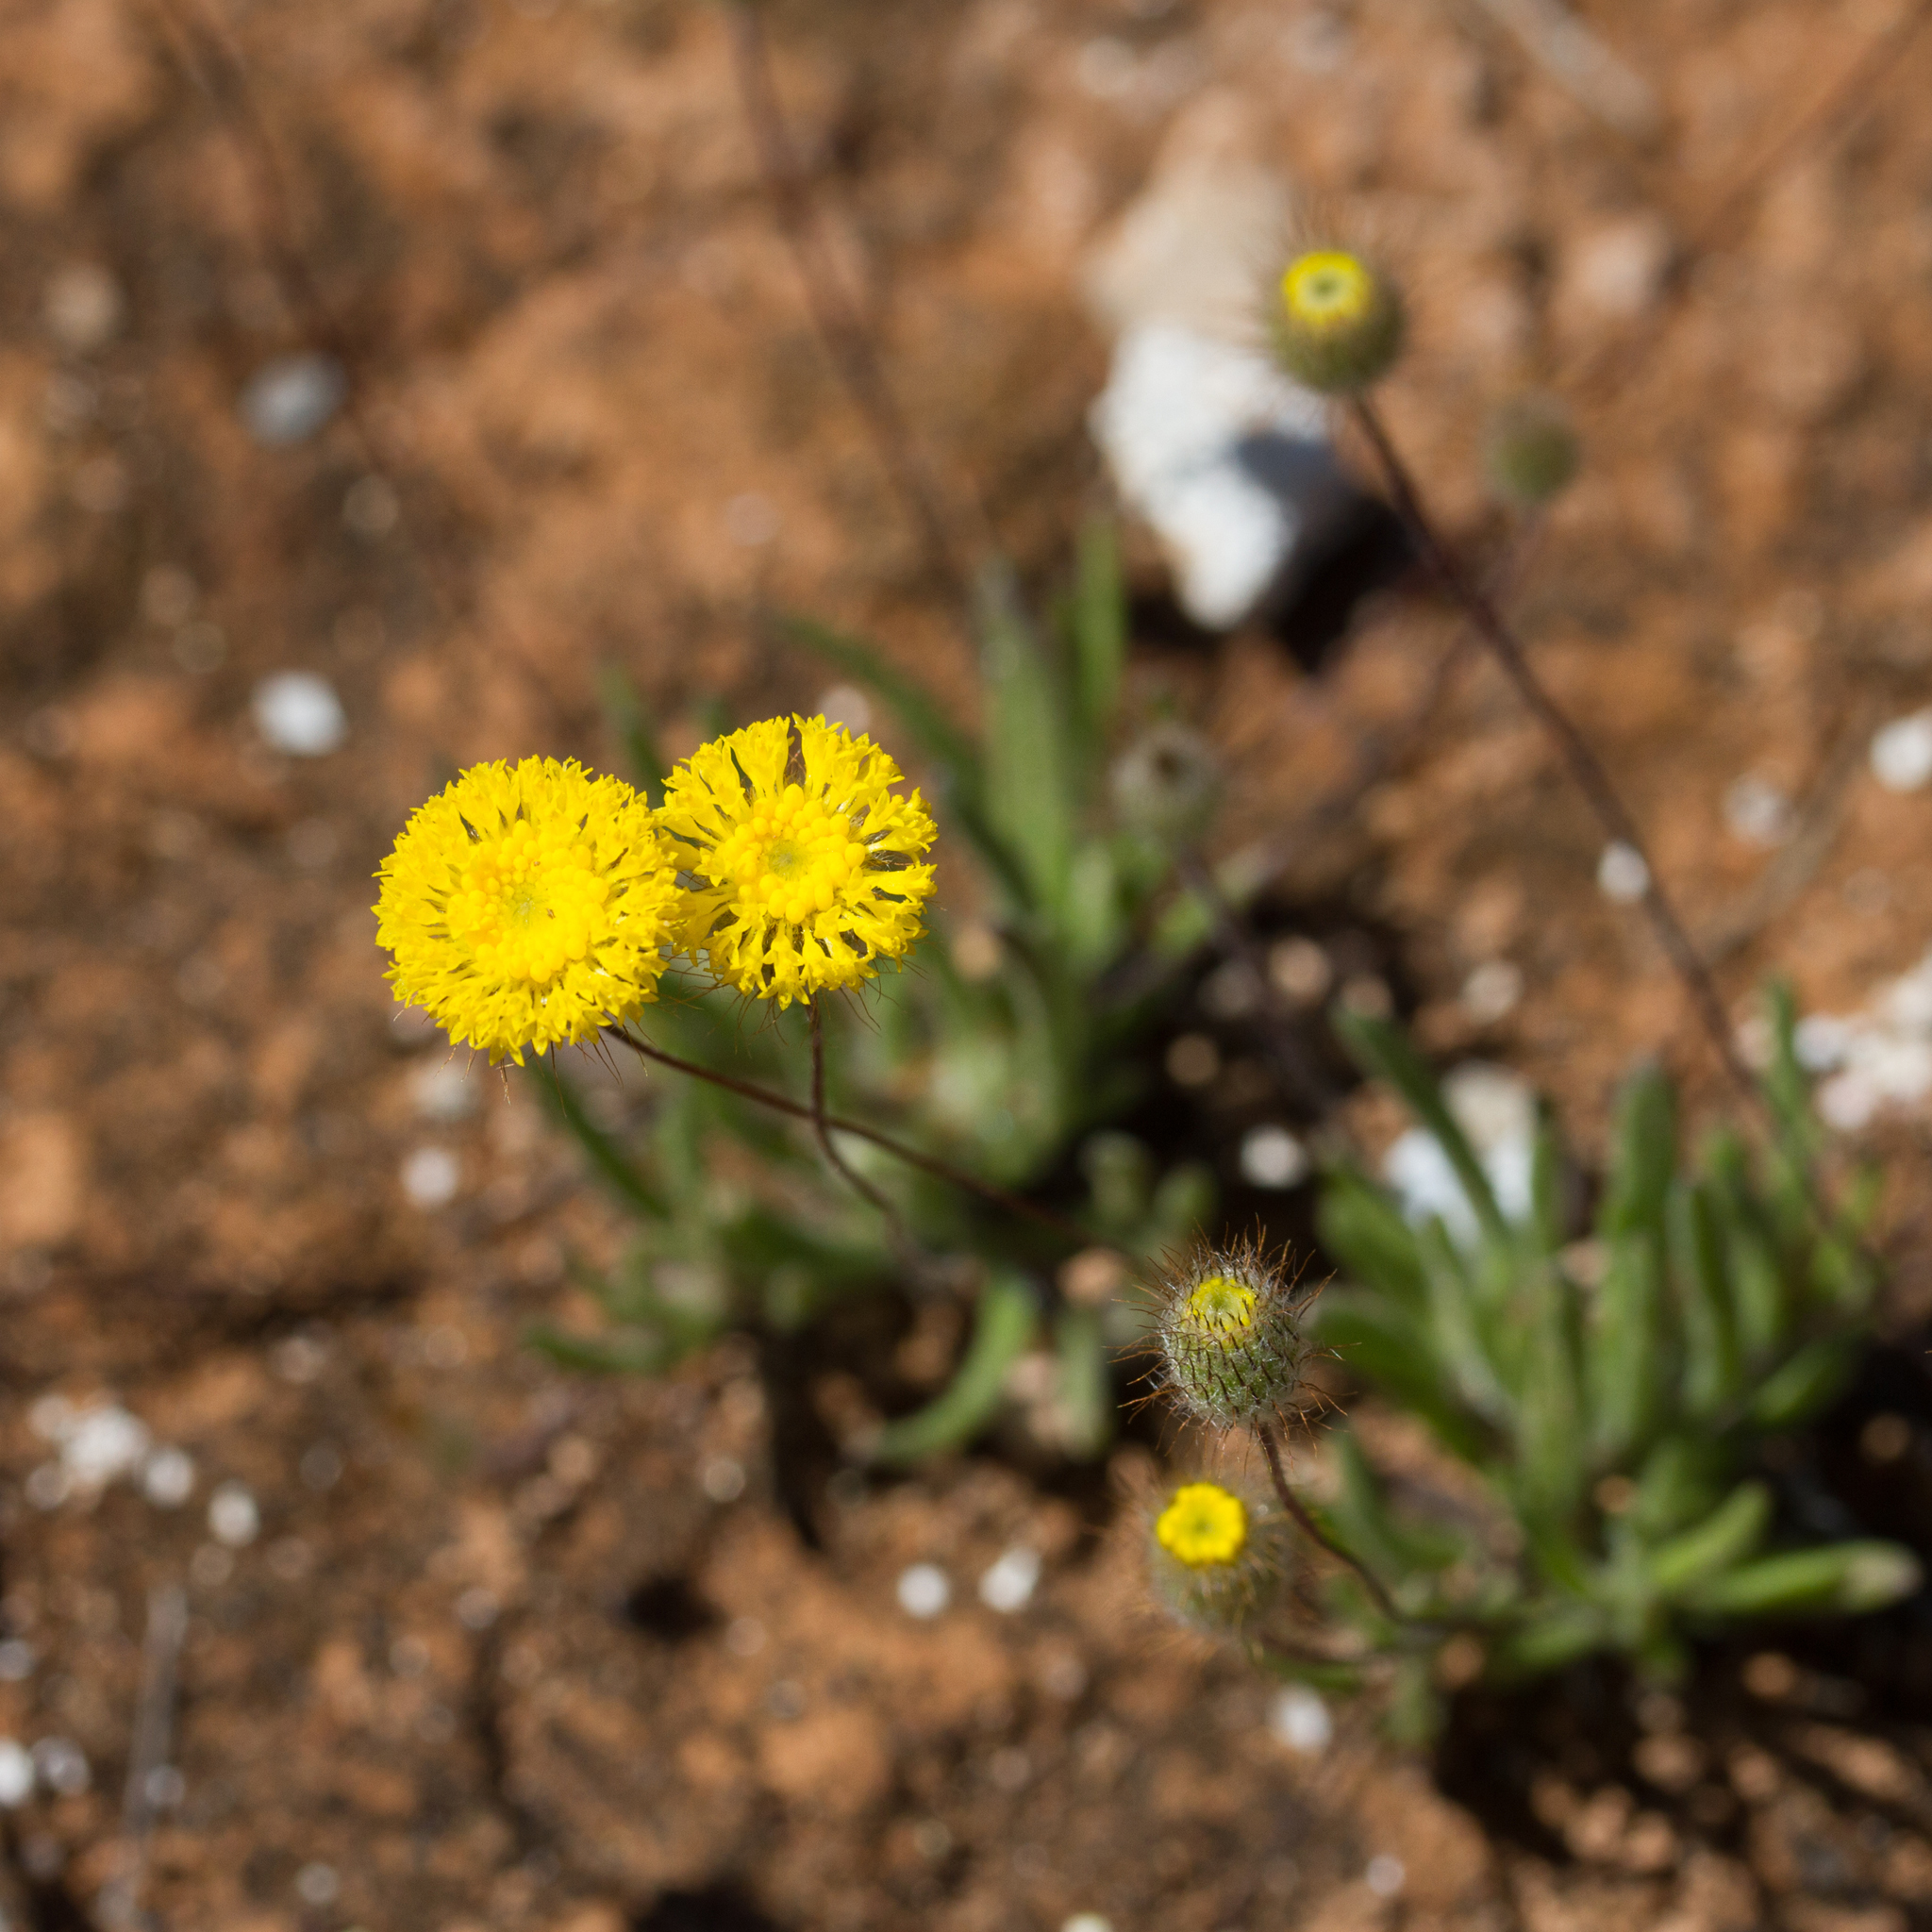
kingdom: Plantae
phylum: Tracheophyta
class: Magnoliopsida
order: Asterales
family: Asteraceae
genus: Asteridea
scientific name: Asteridea athrixioides
